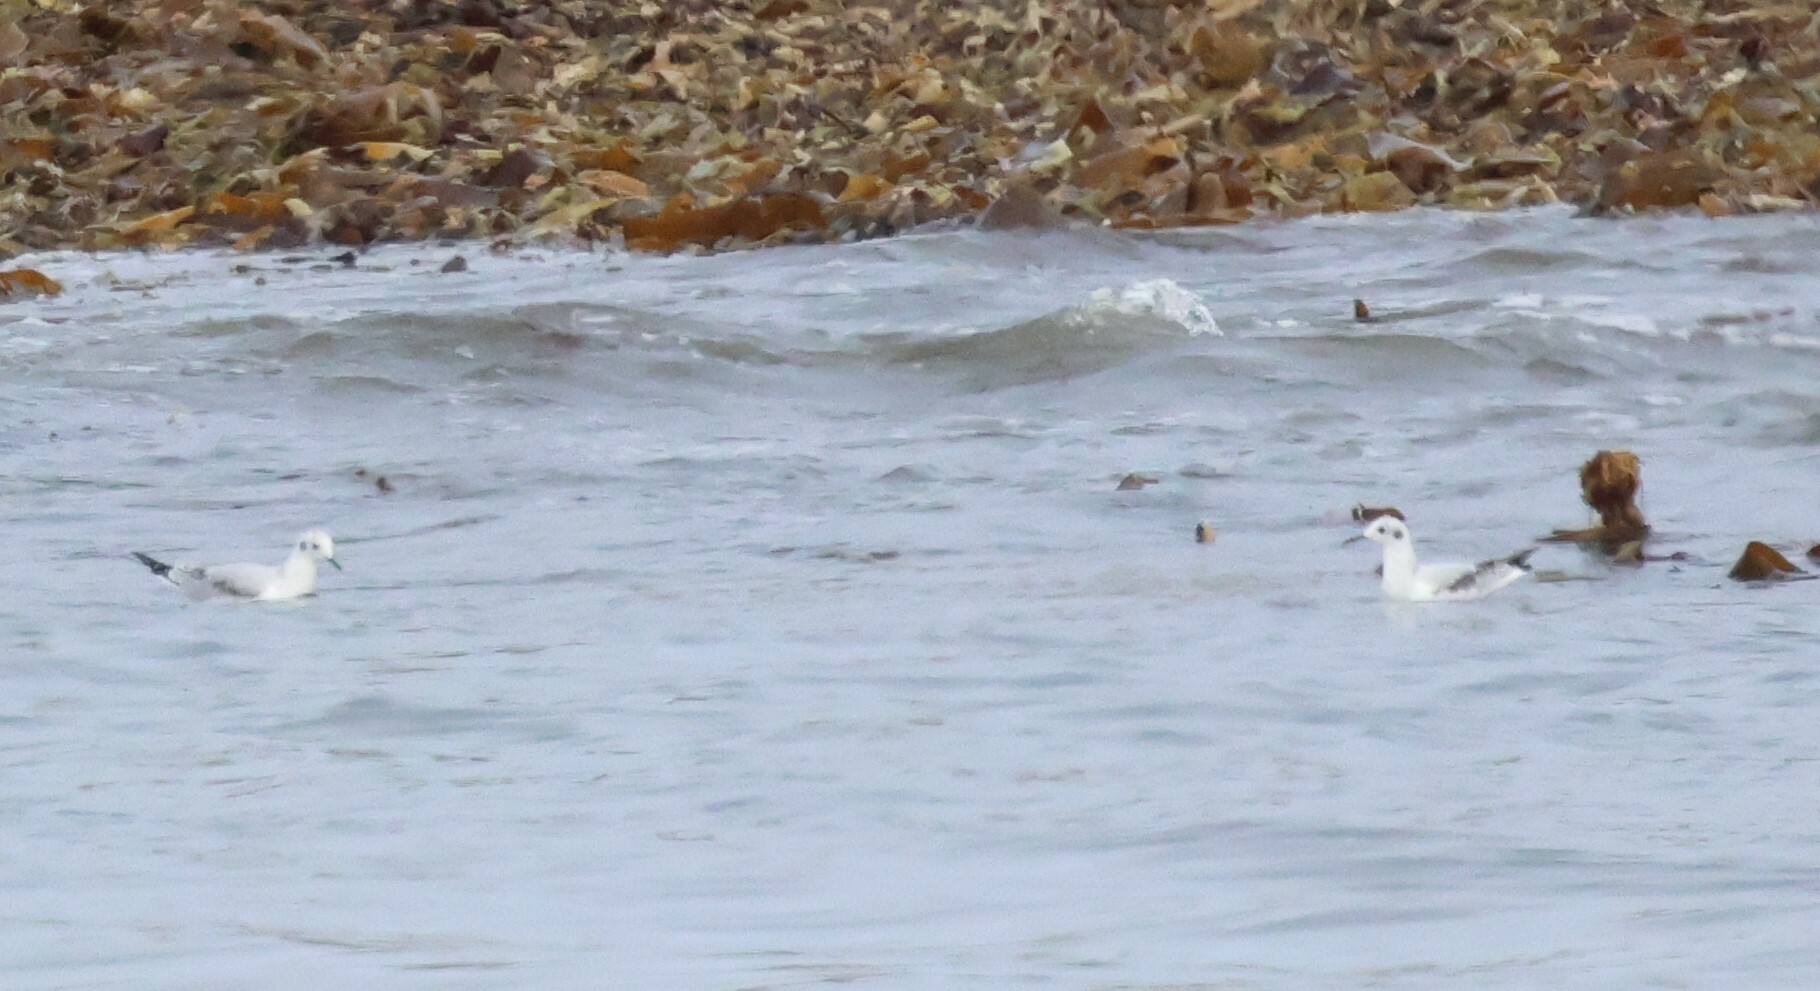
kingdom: Animalia
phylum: Chordata
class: Aves
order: Charadriiformes
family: Laridae
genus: Chroicocephalus
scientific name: Chroicocephalus philadelphia
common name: Bonaparte's gull
